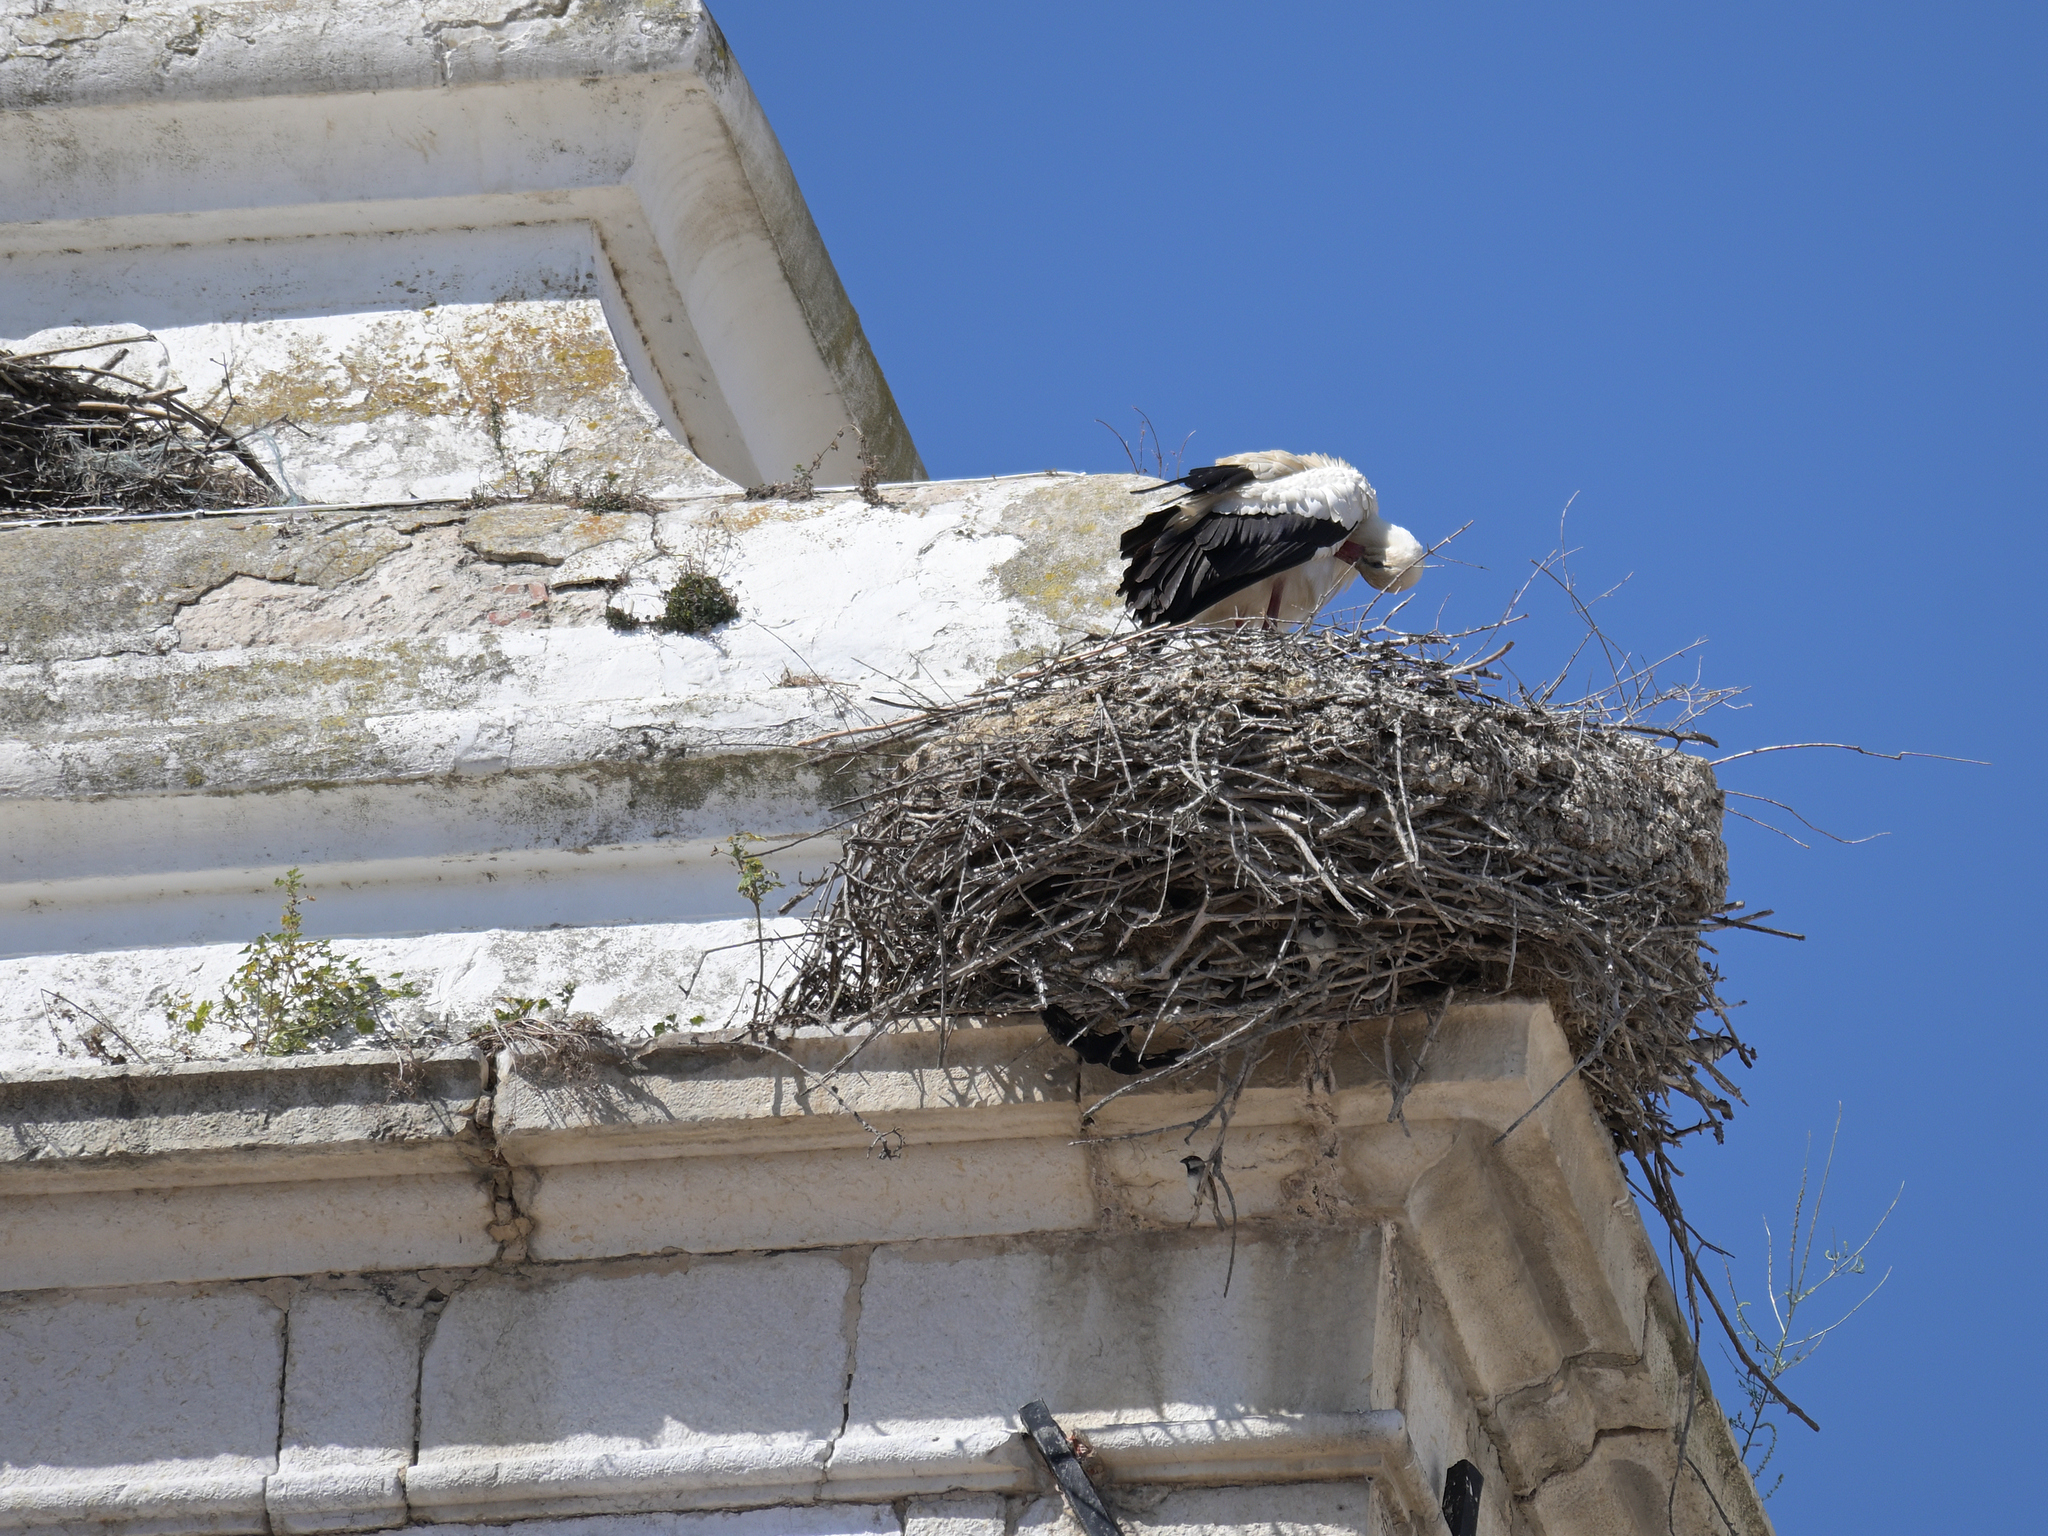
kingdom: Animalia
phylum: Chordata
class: Aves
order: Ciconiiformes
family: Ciconiidae
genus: Ciconia
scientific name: Ciconia ciconia
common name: White stork
